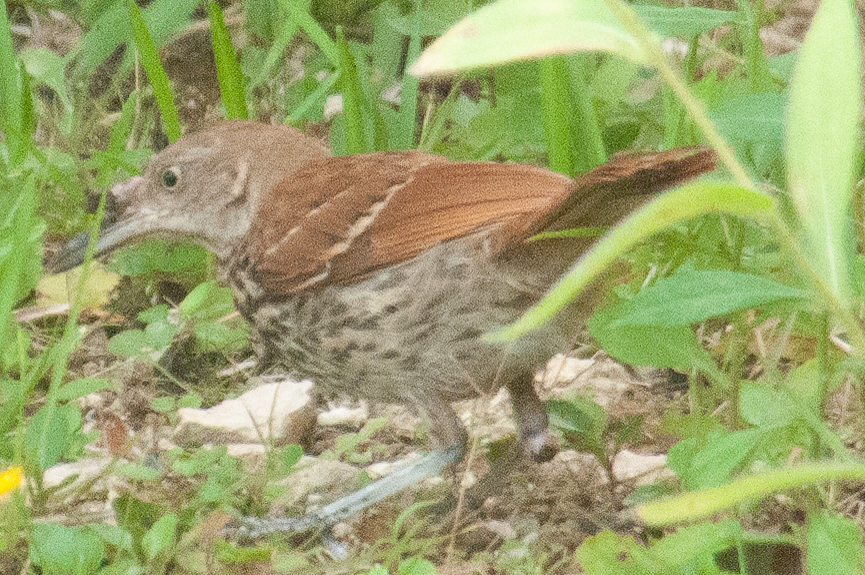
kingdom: Animalia
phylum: Chordata
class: Aves
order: Passeriformes
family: Mimidae
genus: Toxostoma
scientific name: Toxostoma rufum
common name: Brown thrasher
